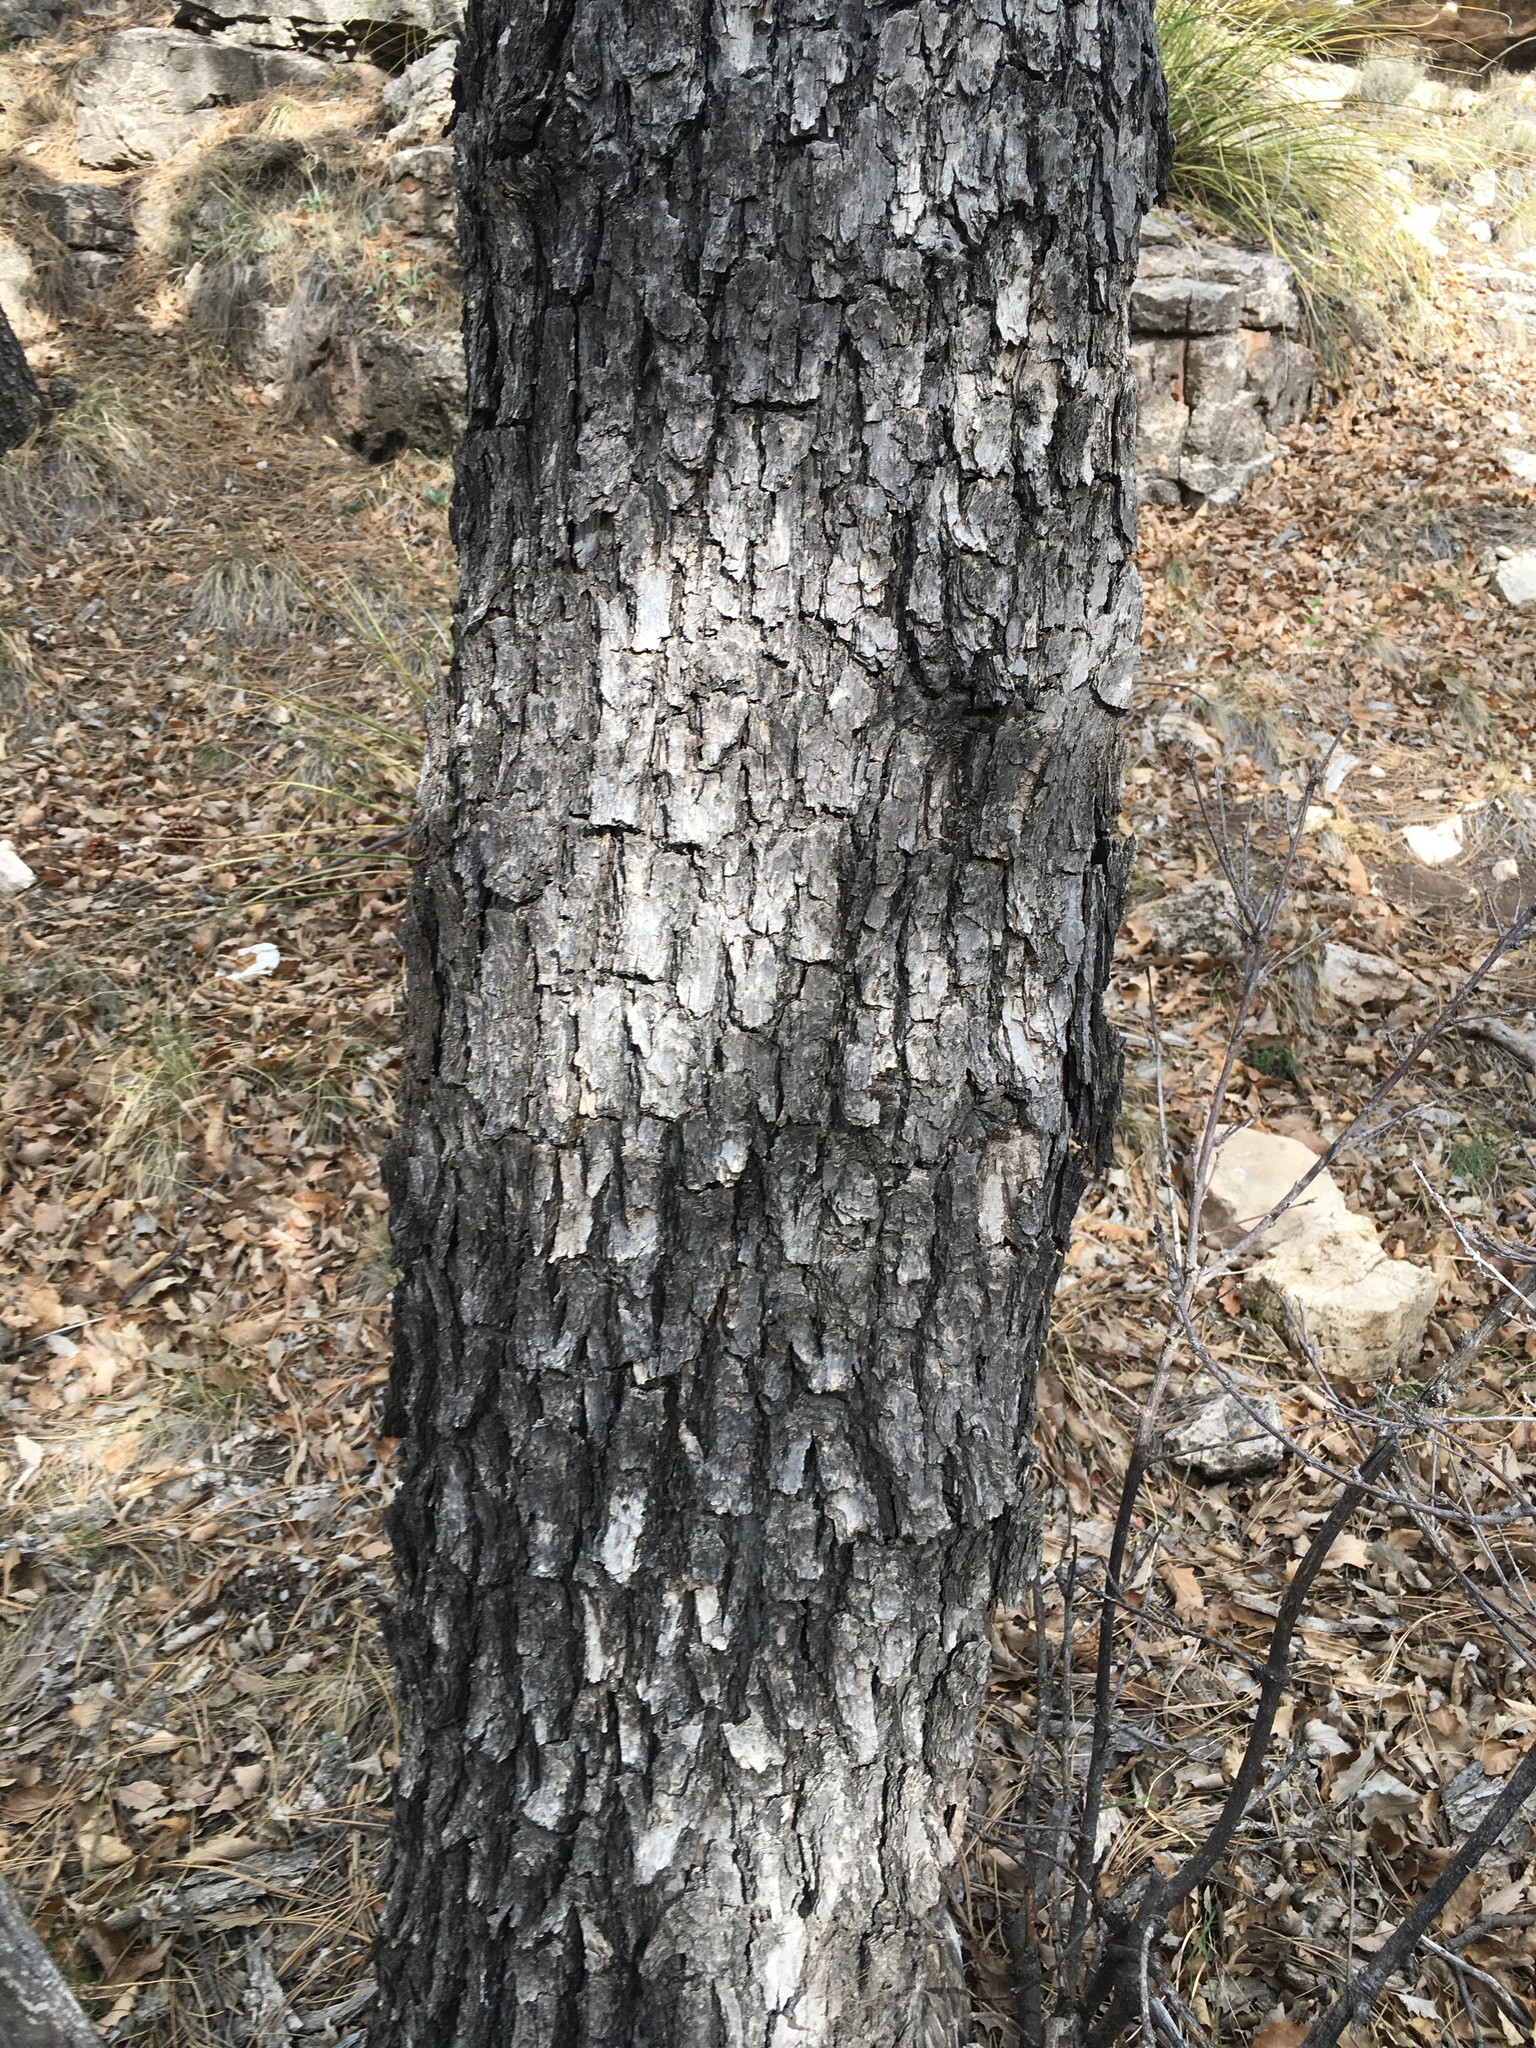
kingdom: Plantae
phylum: Tracheophyta
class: Magnoliopsida
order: Fagales
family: Fagaceae
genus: Quercus
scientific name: Quercus muehlenbergii
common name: Chinkapin oak
